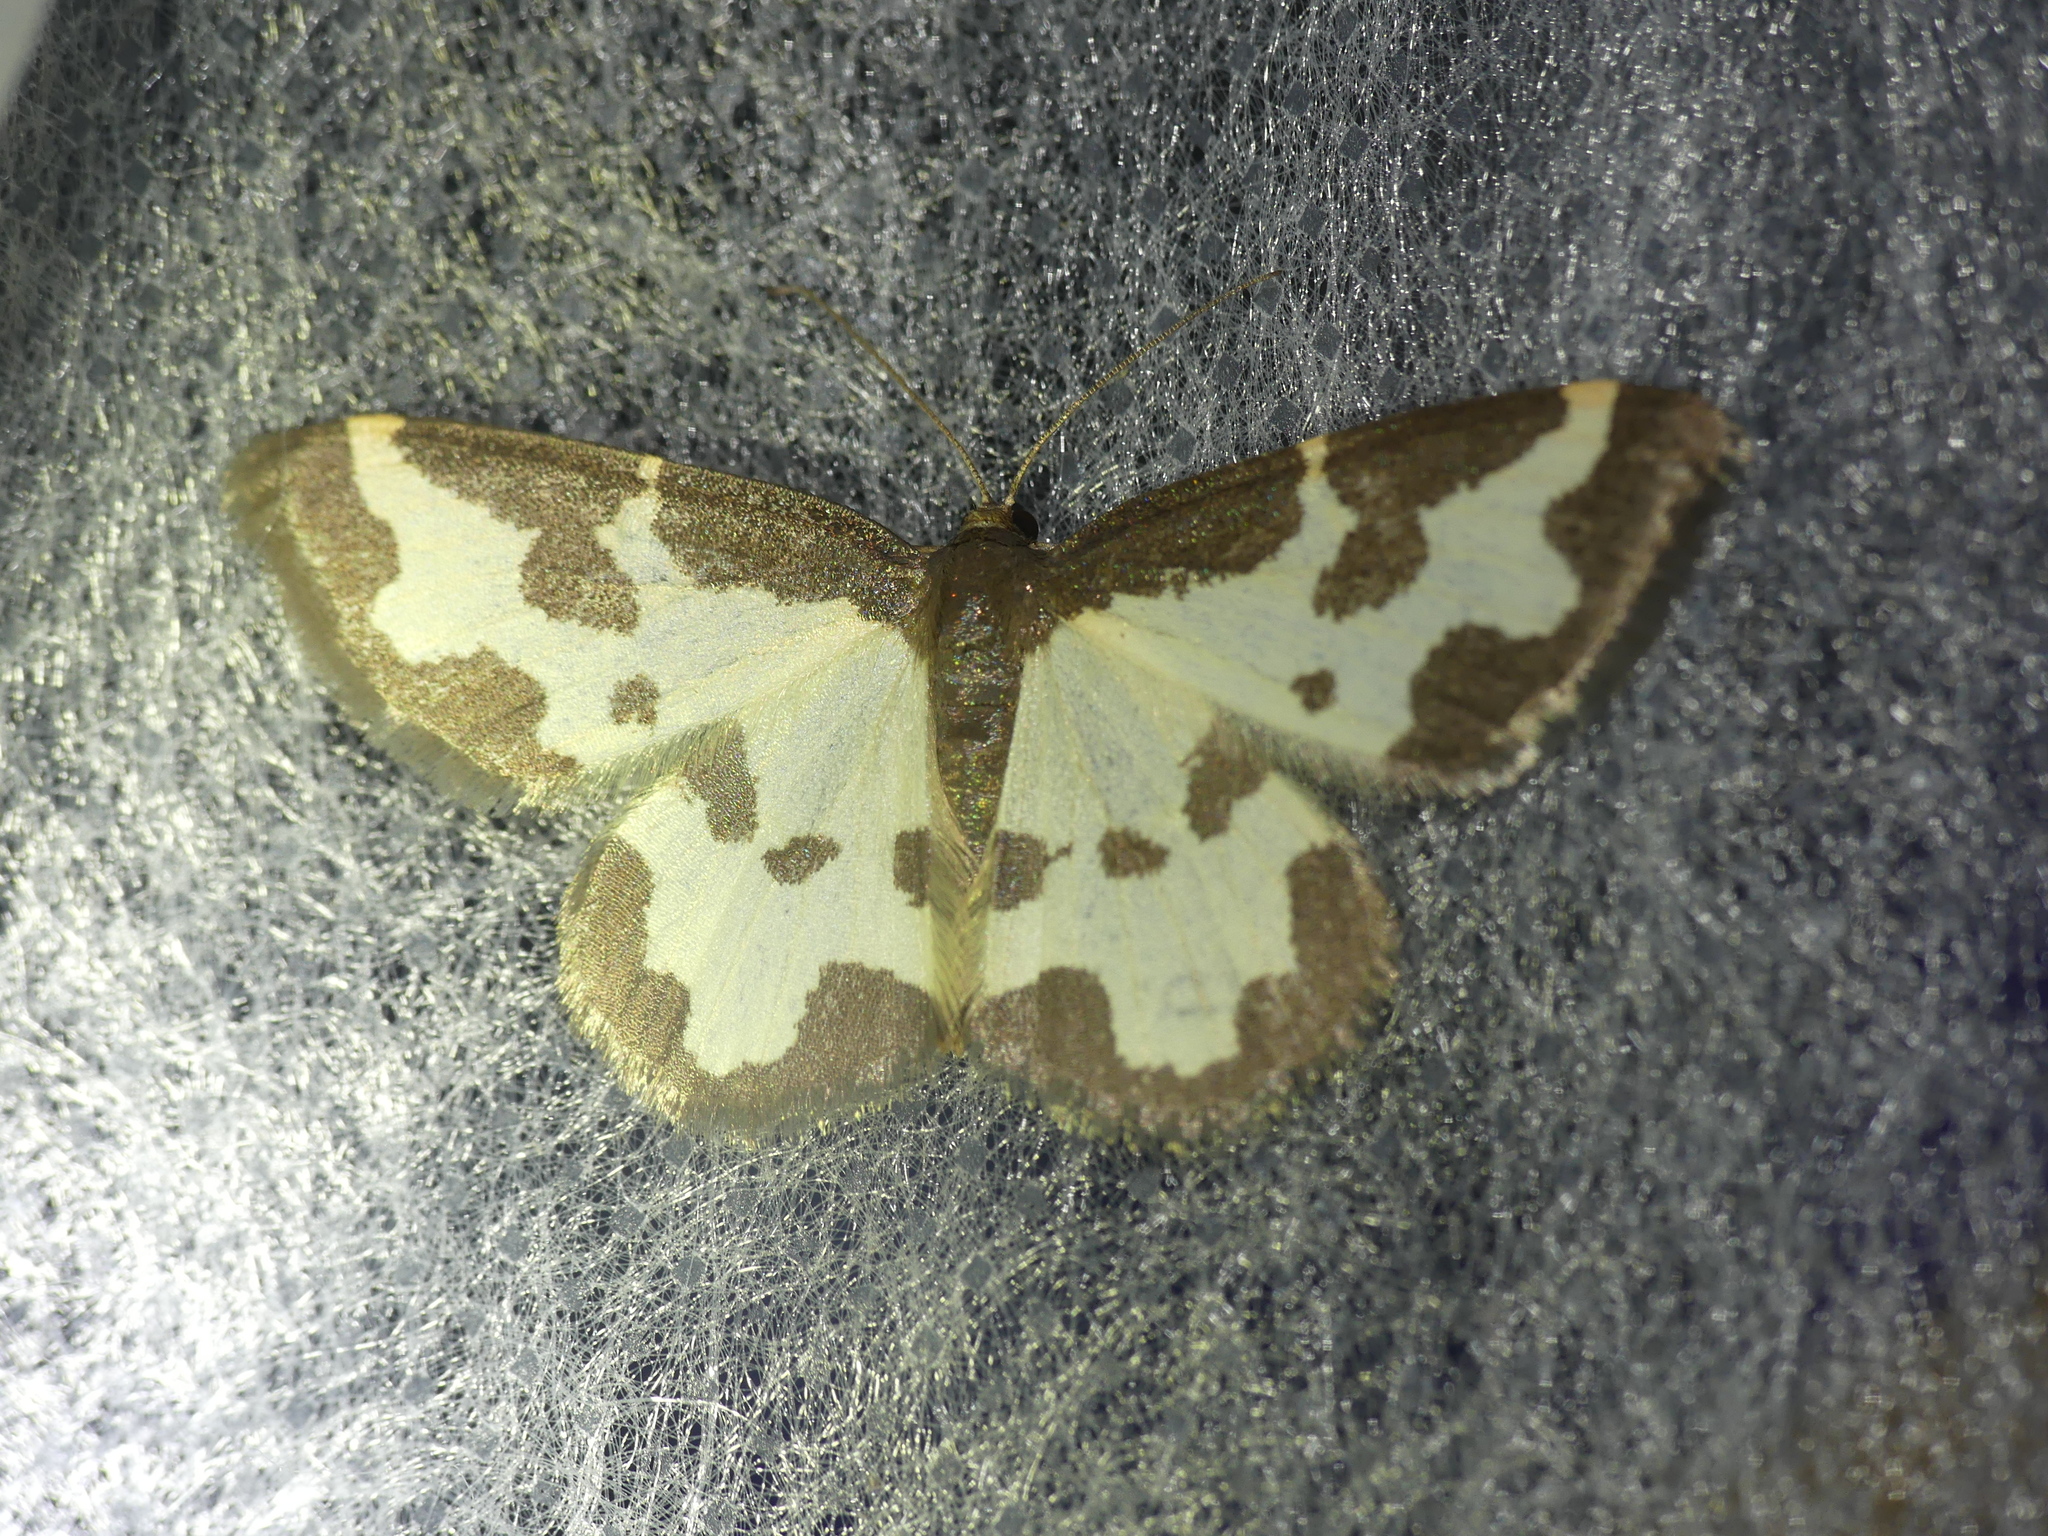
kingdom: Animalia
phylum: Arthropoda
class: Insecta
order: Lepidoptera
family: Geometridae
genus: Lomaspilis
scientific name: Lomaspilis marginata
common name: Clouded border
